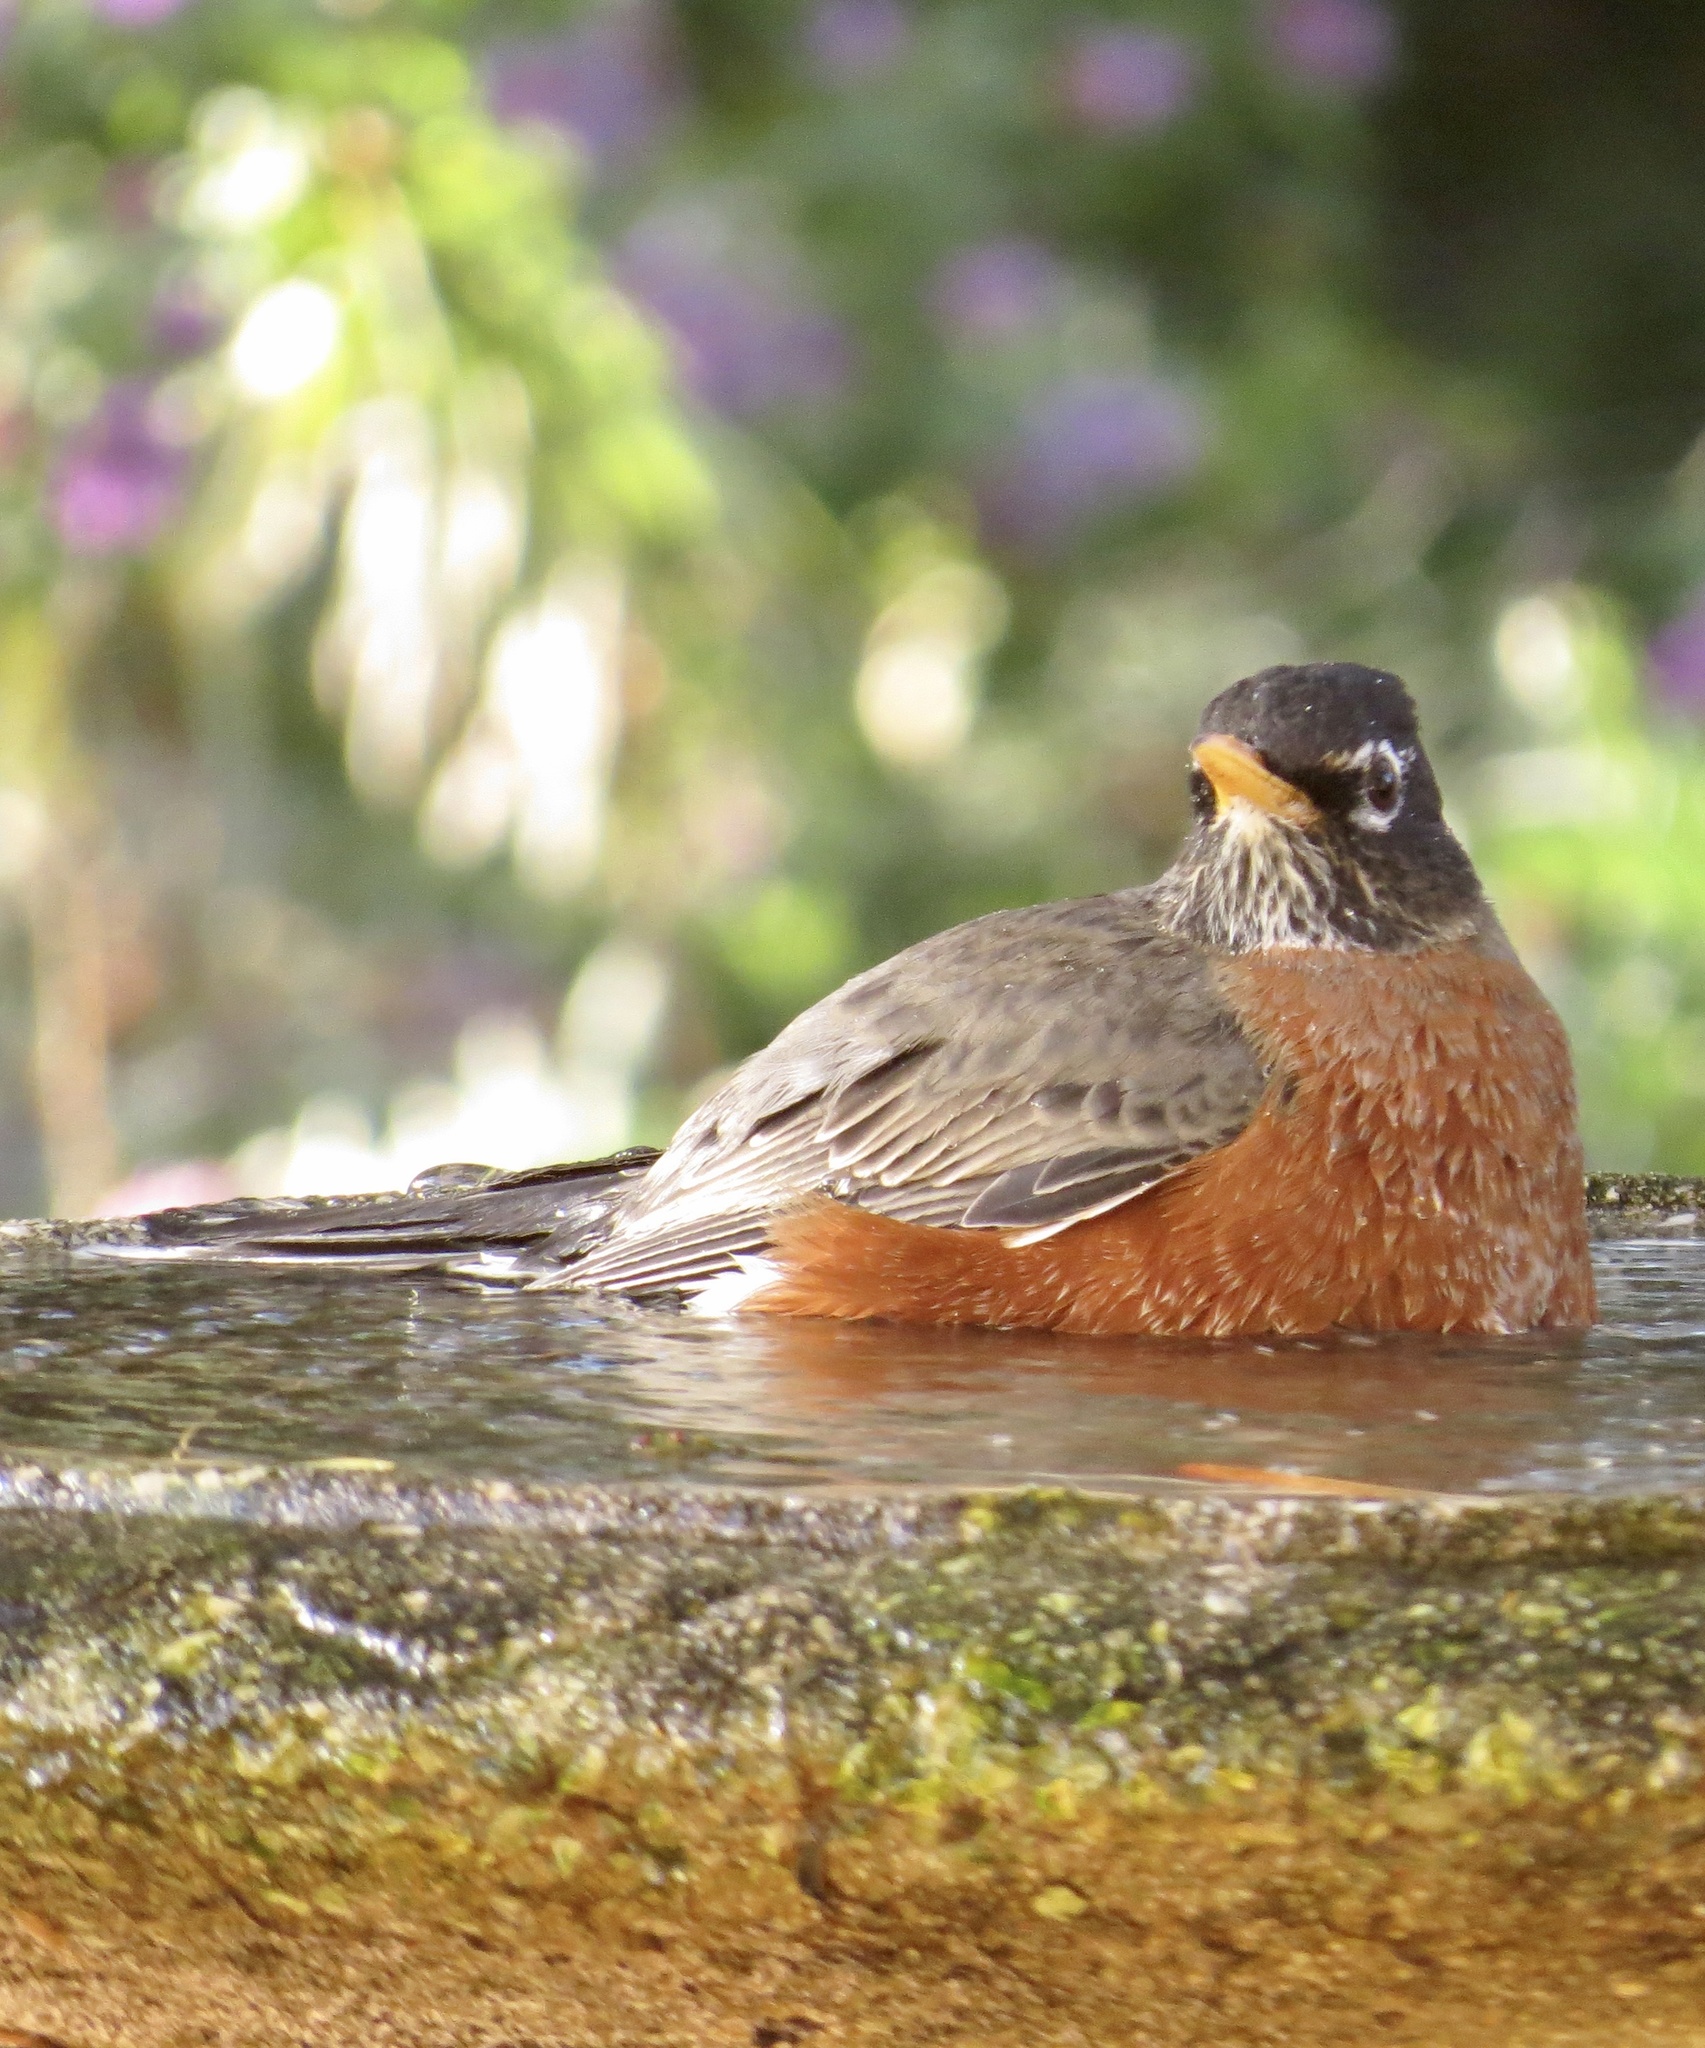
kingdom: Animalia
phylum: Chordata
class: Aves
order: Passeriformes
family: Turdidae
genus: Turdus
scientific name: Turdus migratorius
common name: American robin
